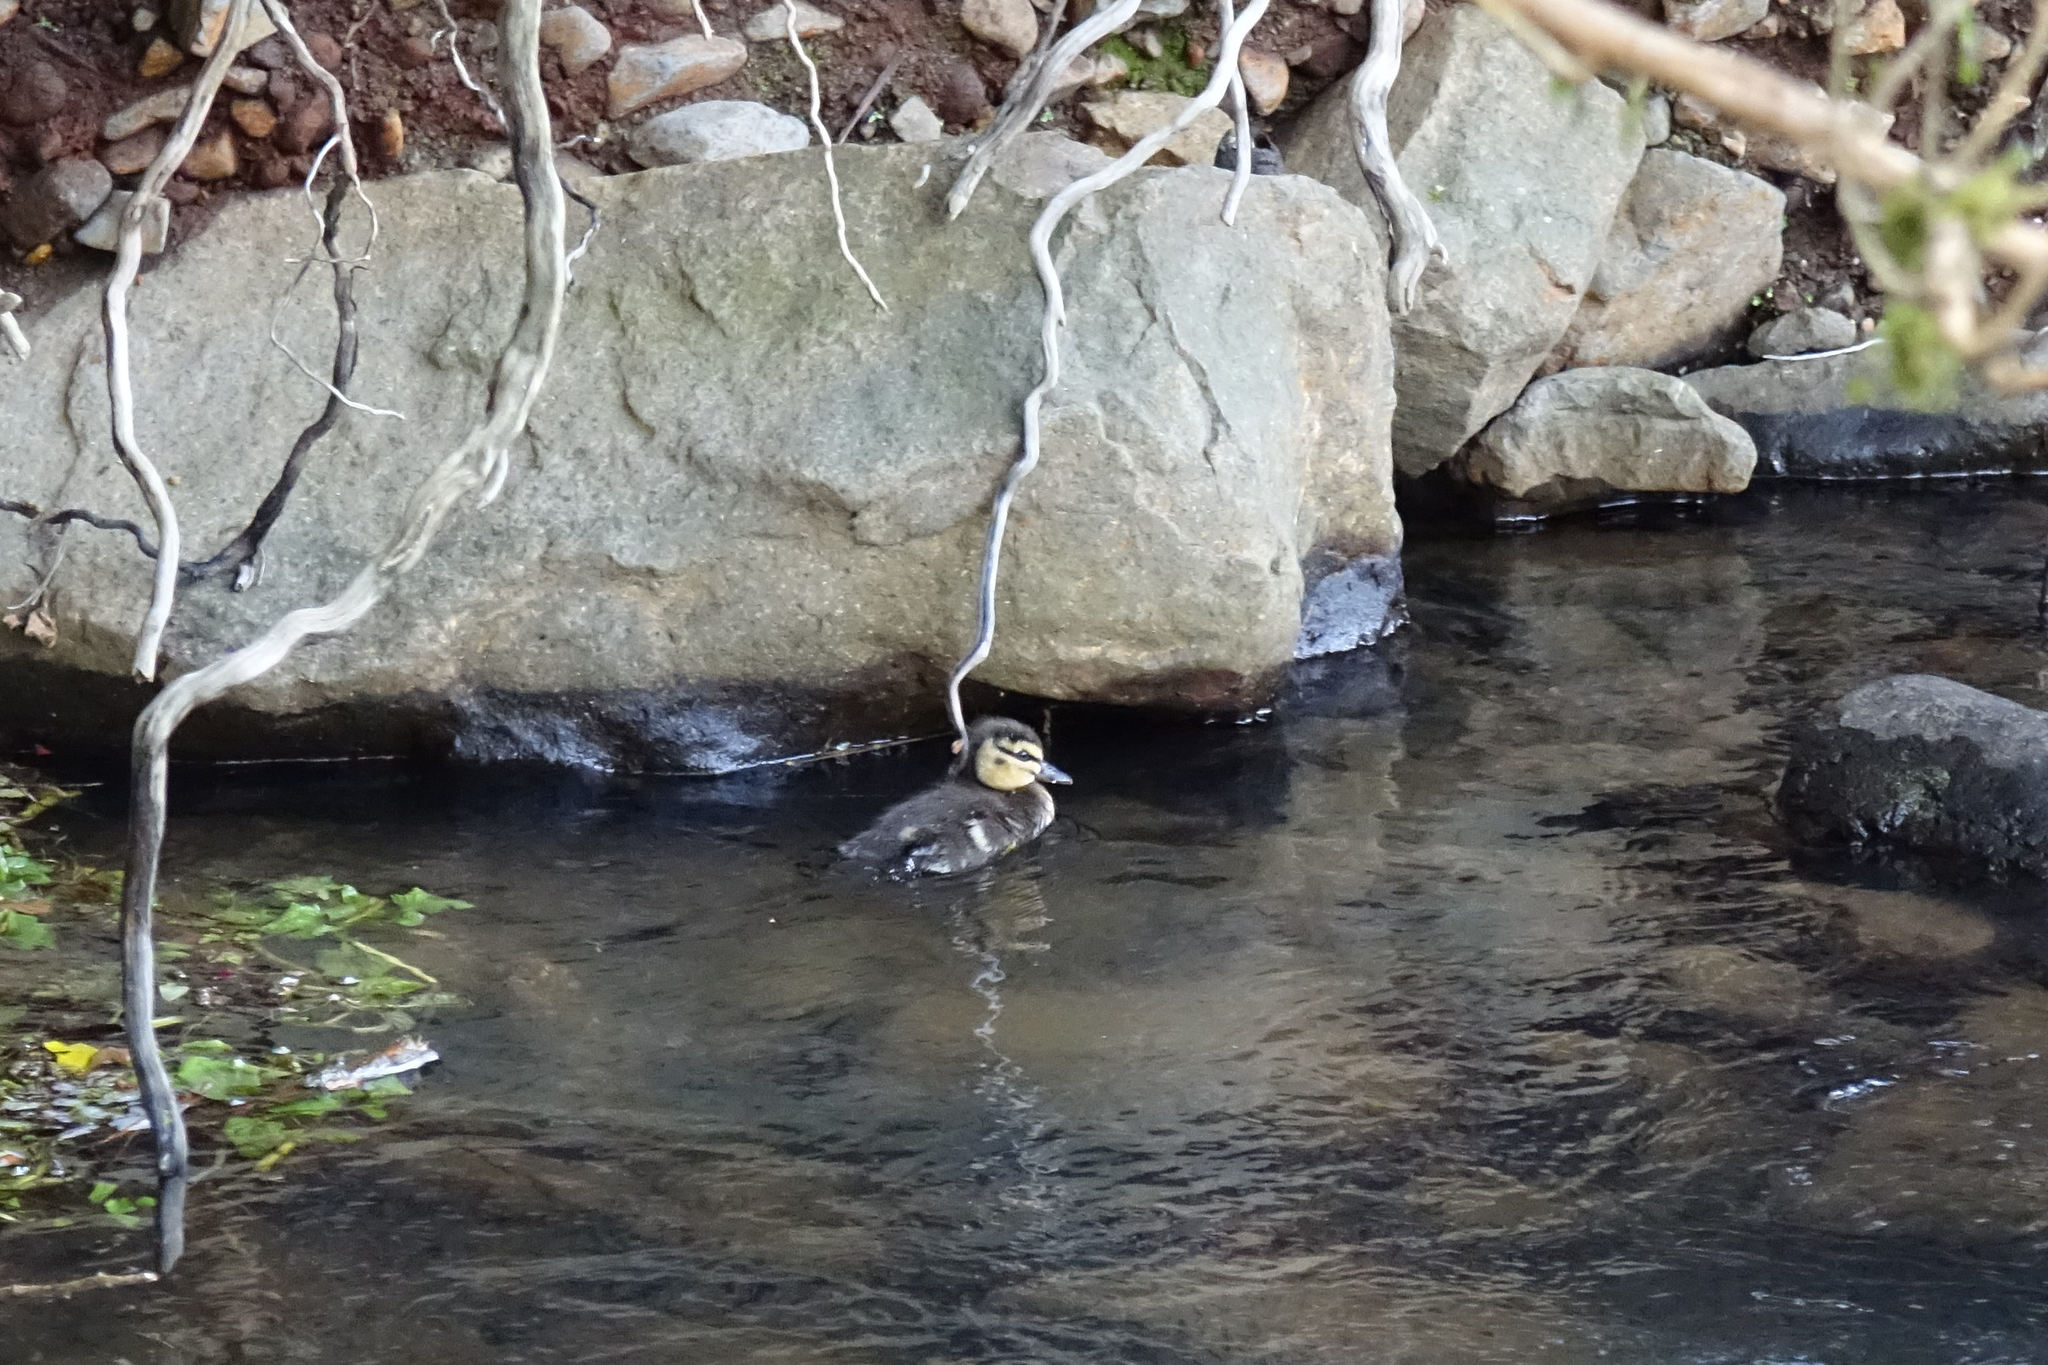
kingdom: Animalia
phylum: Chordata
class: Aves
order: Anseriformes
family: Anatidae
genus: Anas
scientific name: Anas
